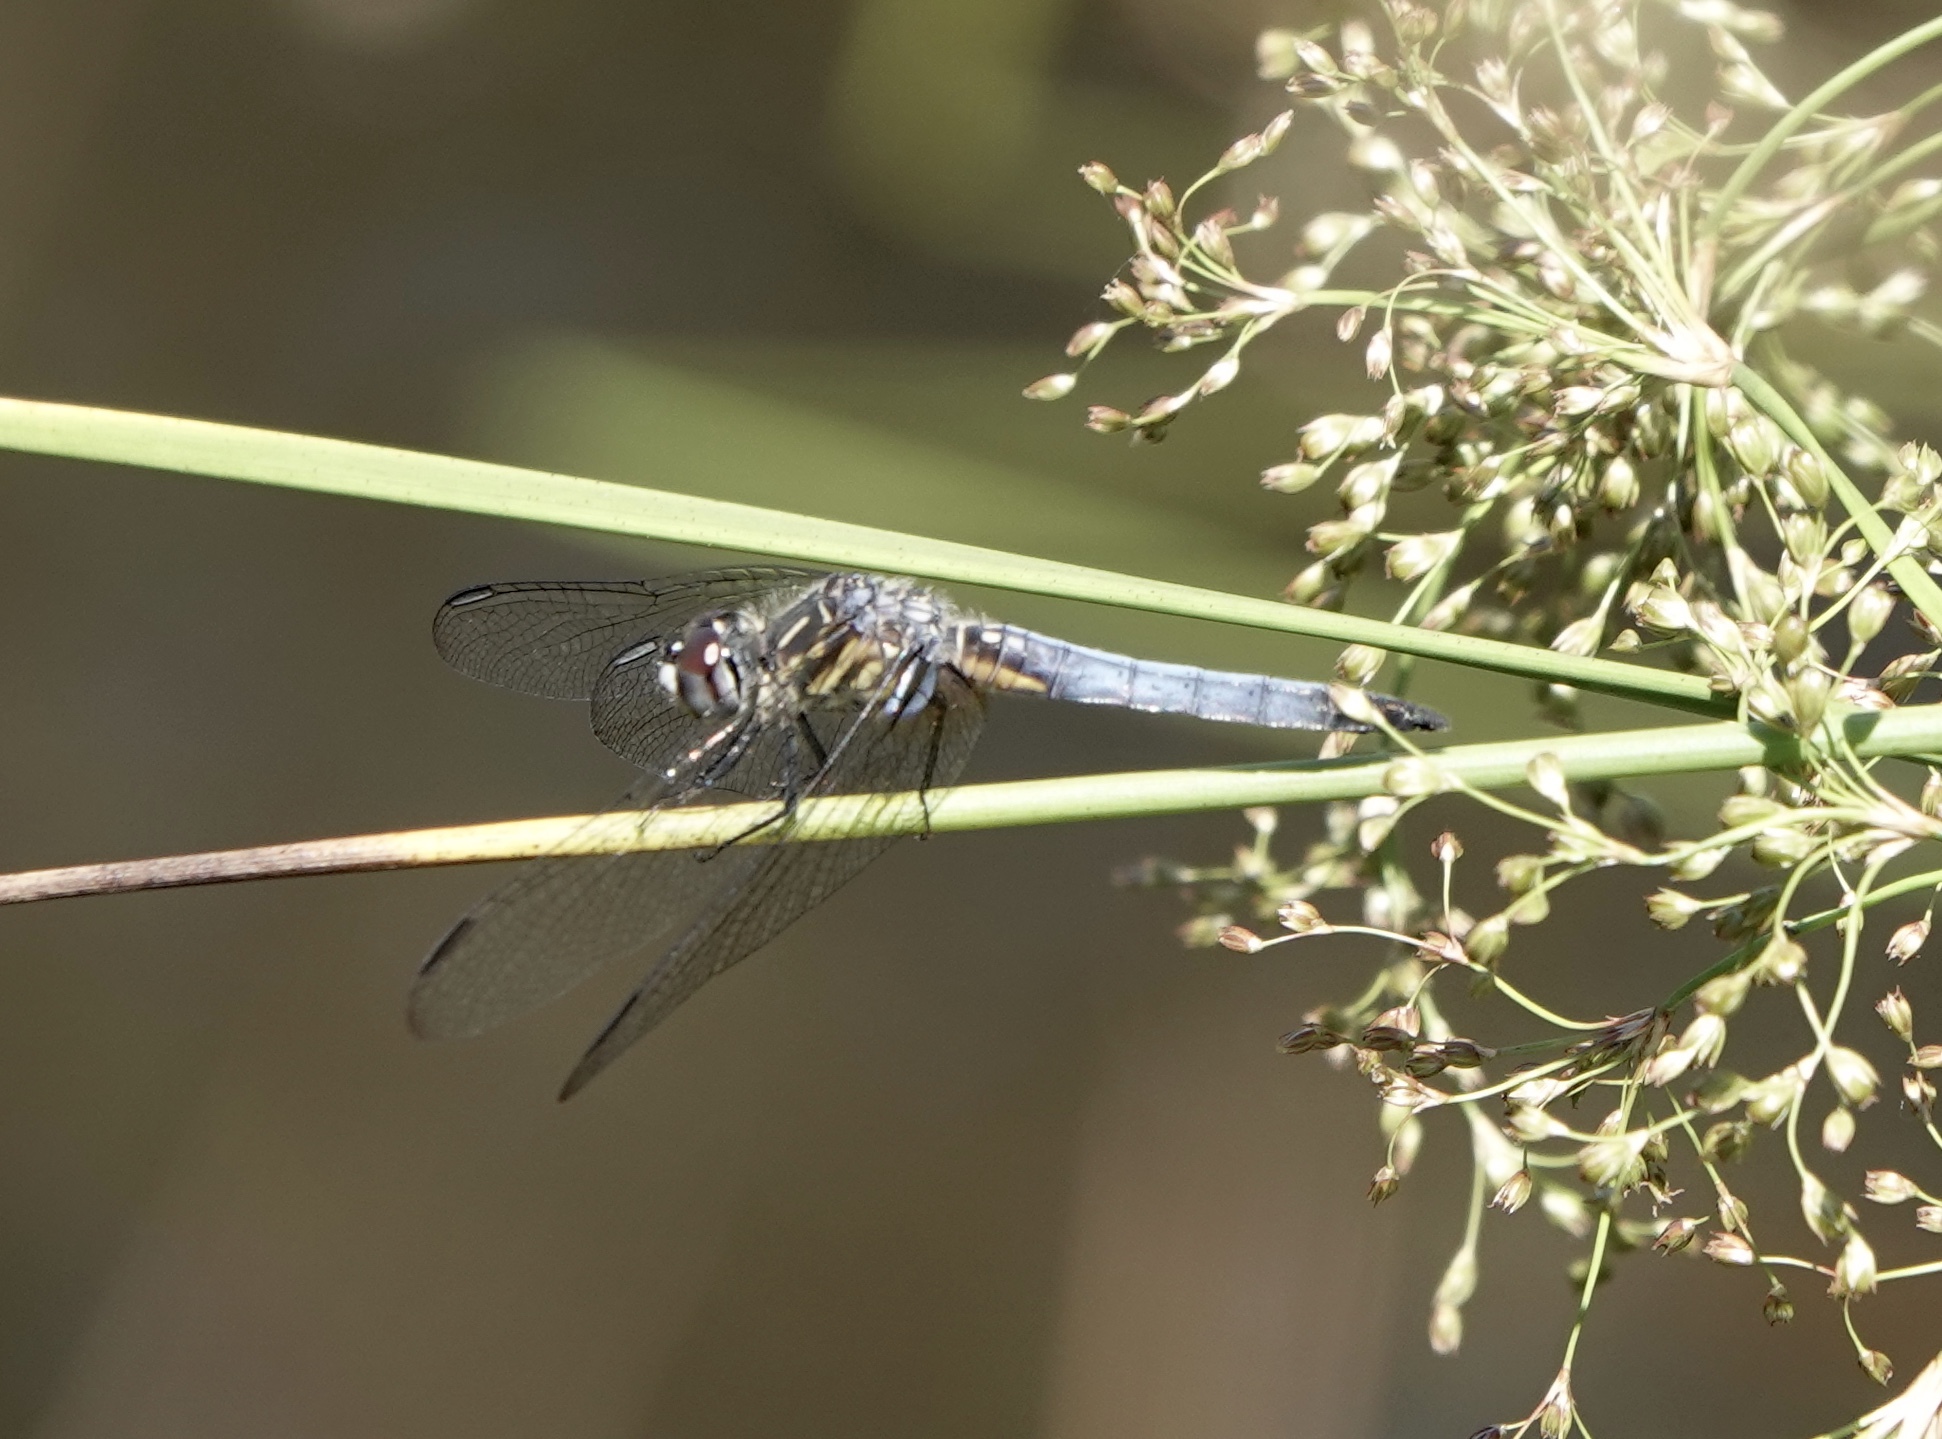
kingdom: Animalia
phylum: Arthropoda
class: Insecta
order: Odonata
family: Libellulidae
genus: Pachydiplax
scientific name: Pachydiplax longipennis
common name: Blue dasher
